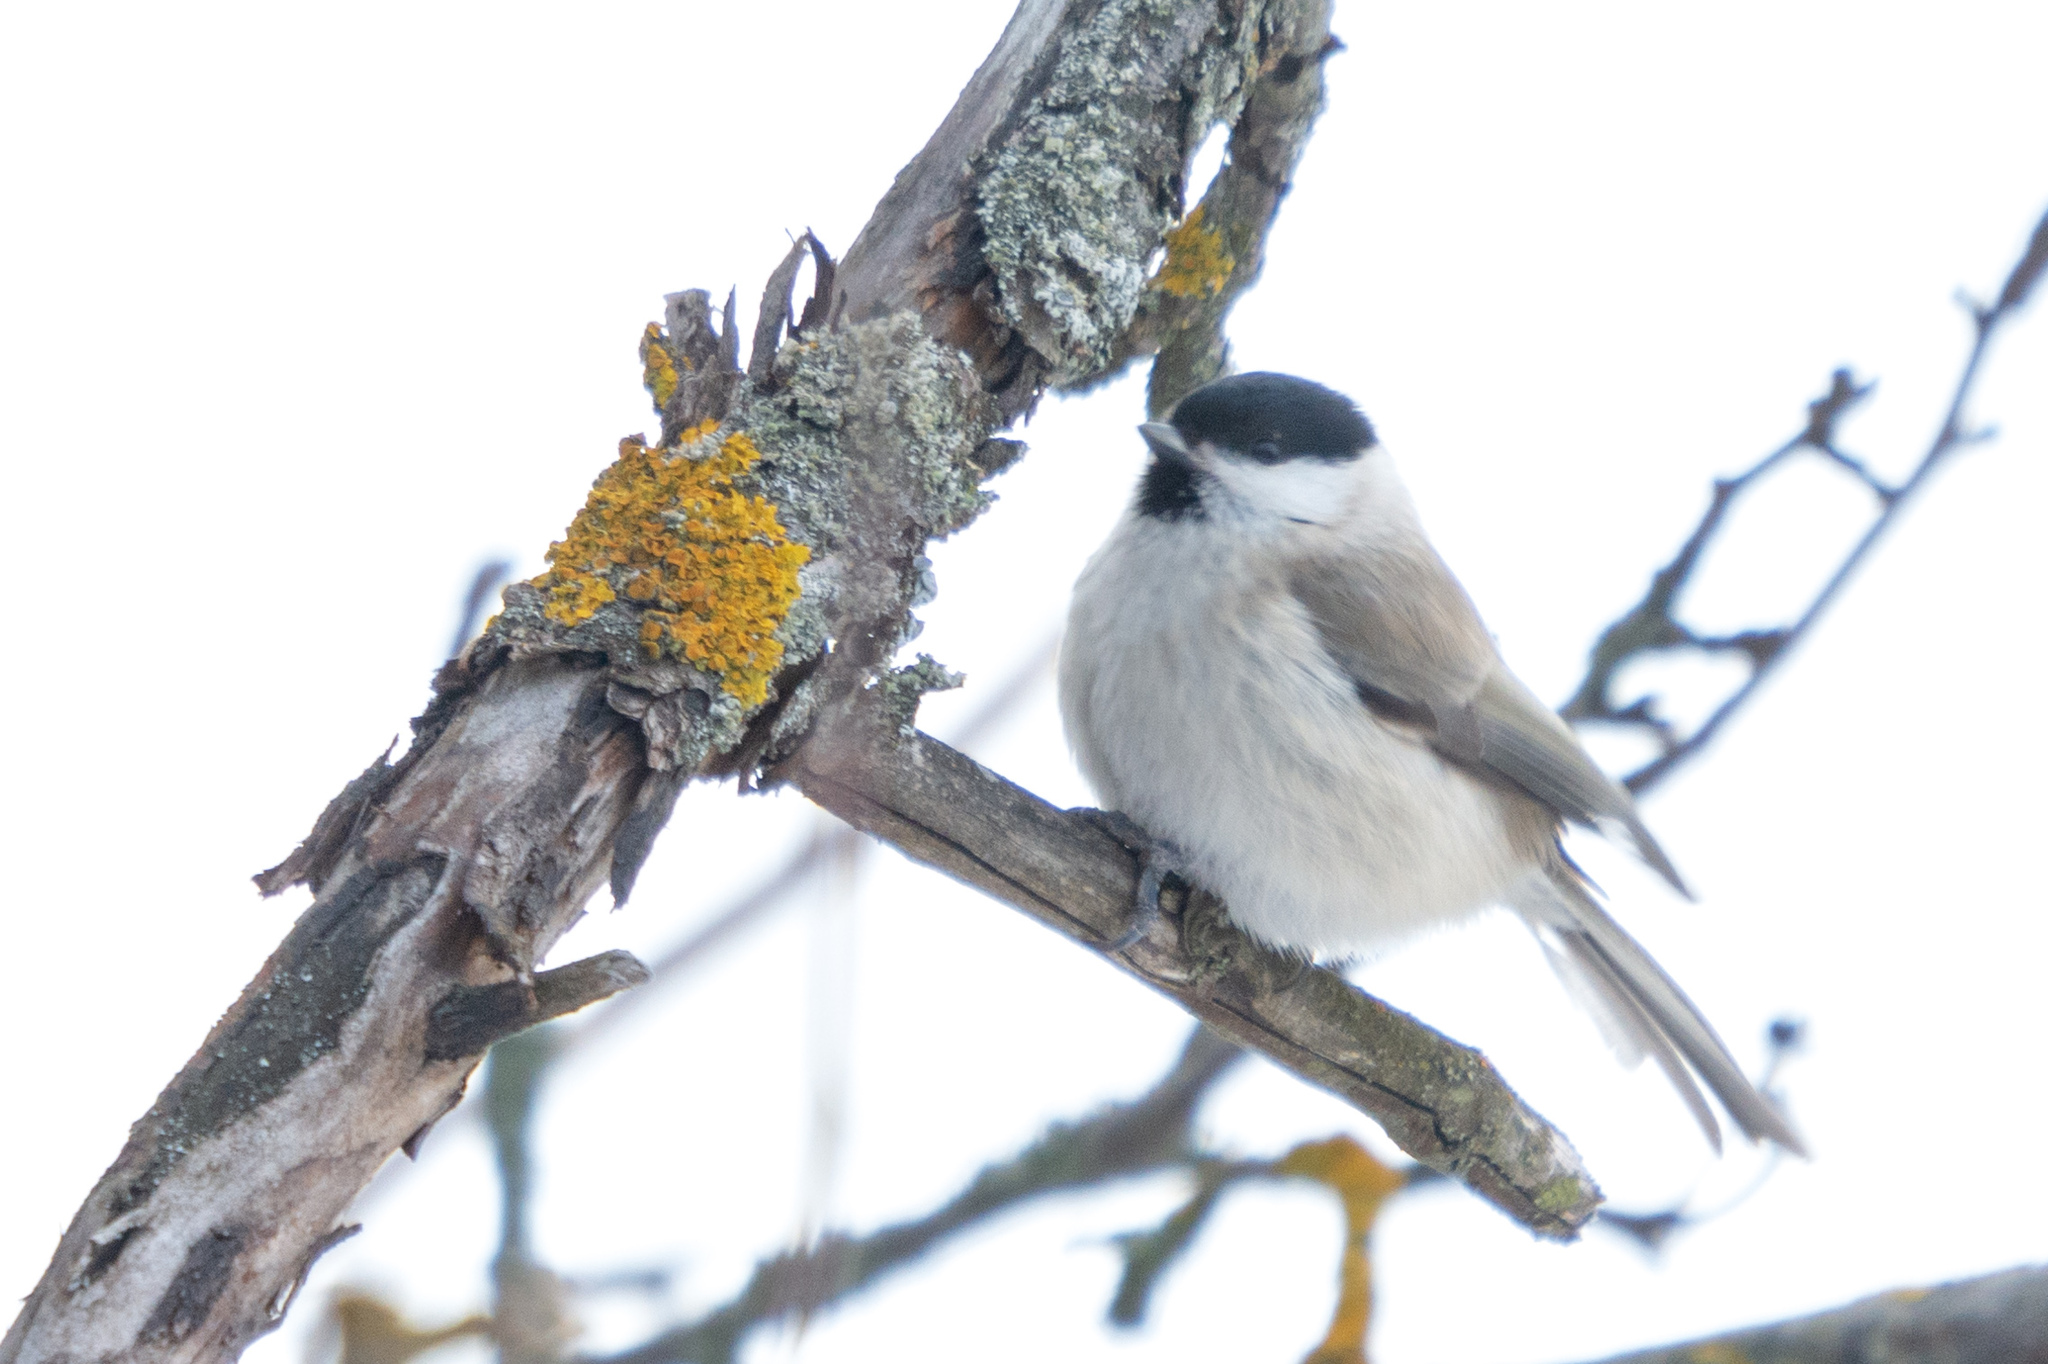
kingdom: Animalia
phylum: Chordata
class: Aves
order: Passeriformes
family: Paridae
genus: Poecile
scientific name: Poecile palustris
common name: Marsh tit
